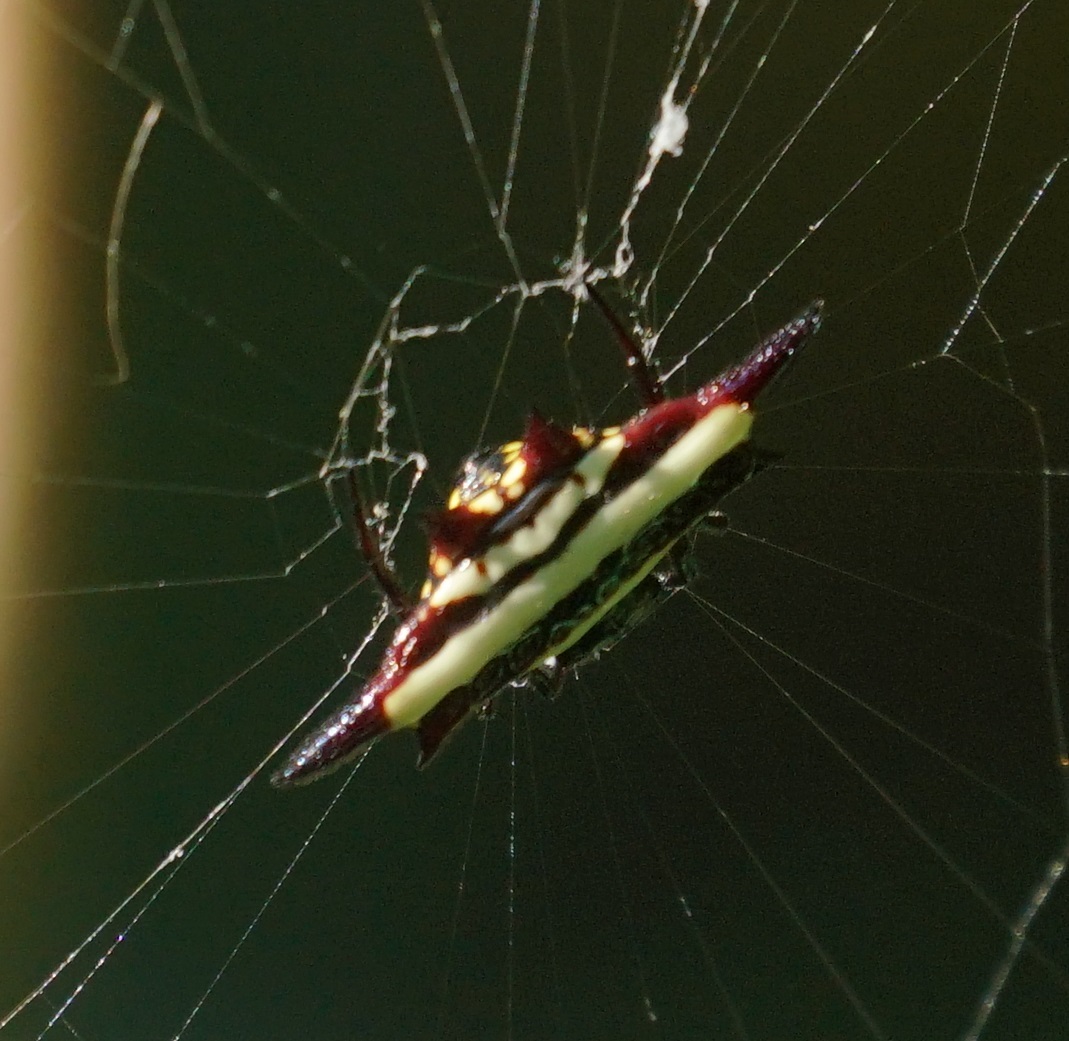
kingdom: Animalia
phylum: Arthropoda
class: Arachnida
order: Araneae
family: Araneidae
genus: Gasteracantha
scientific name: Gasteracantha fornicata
